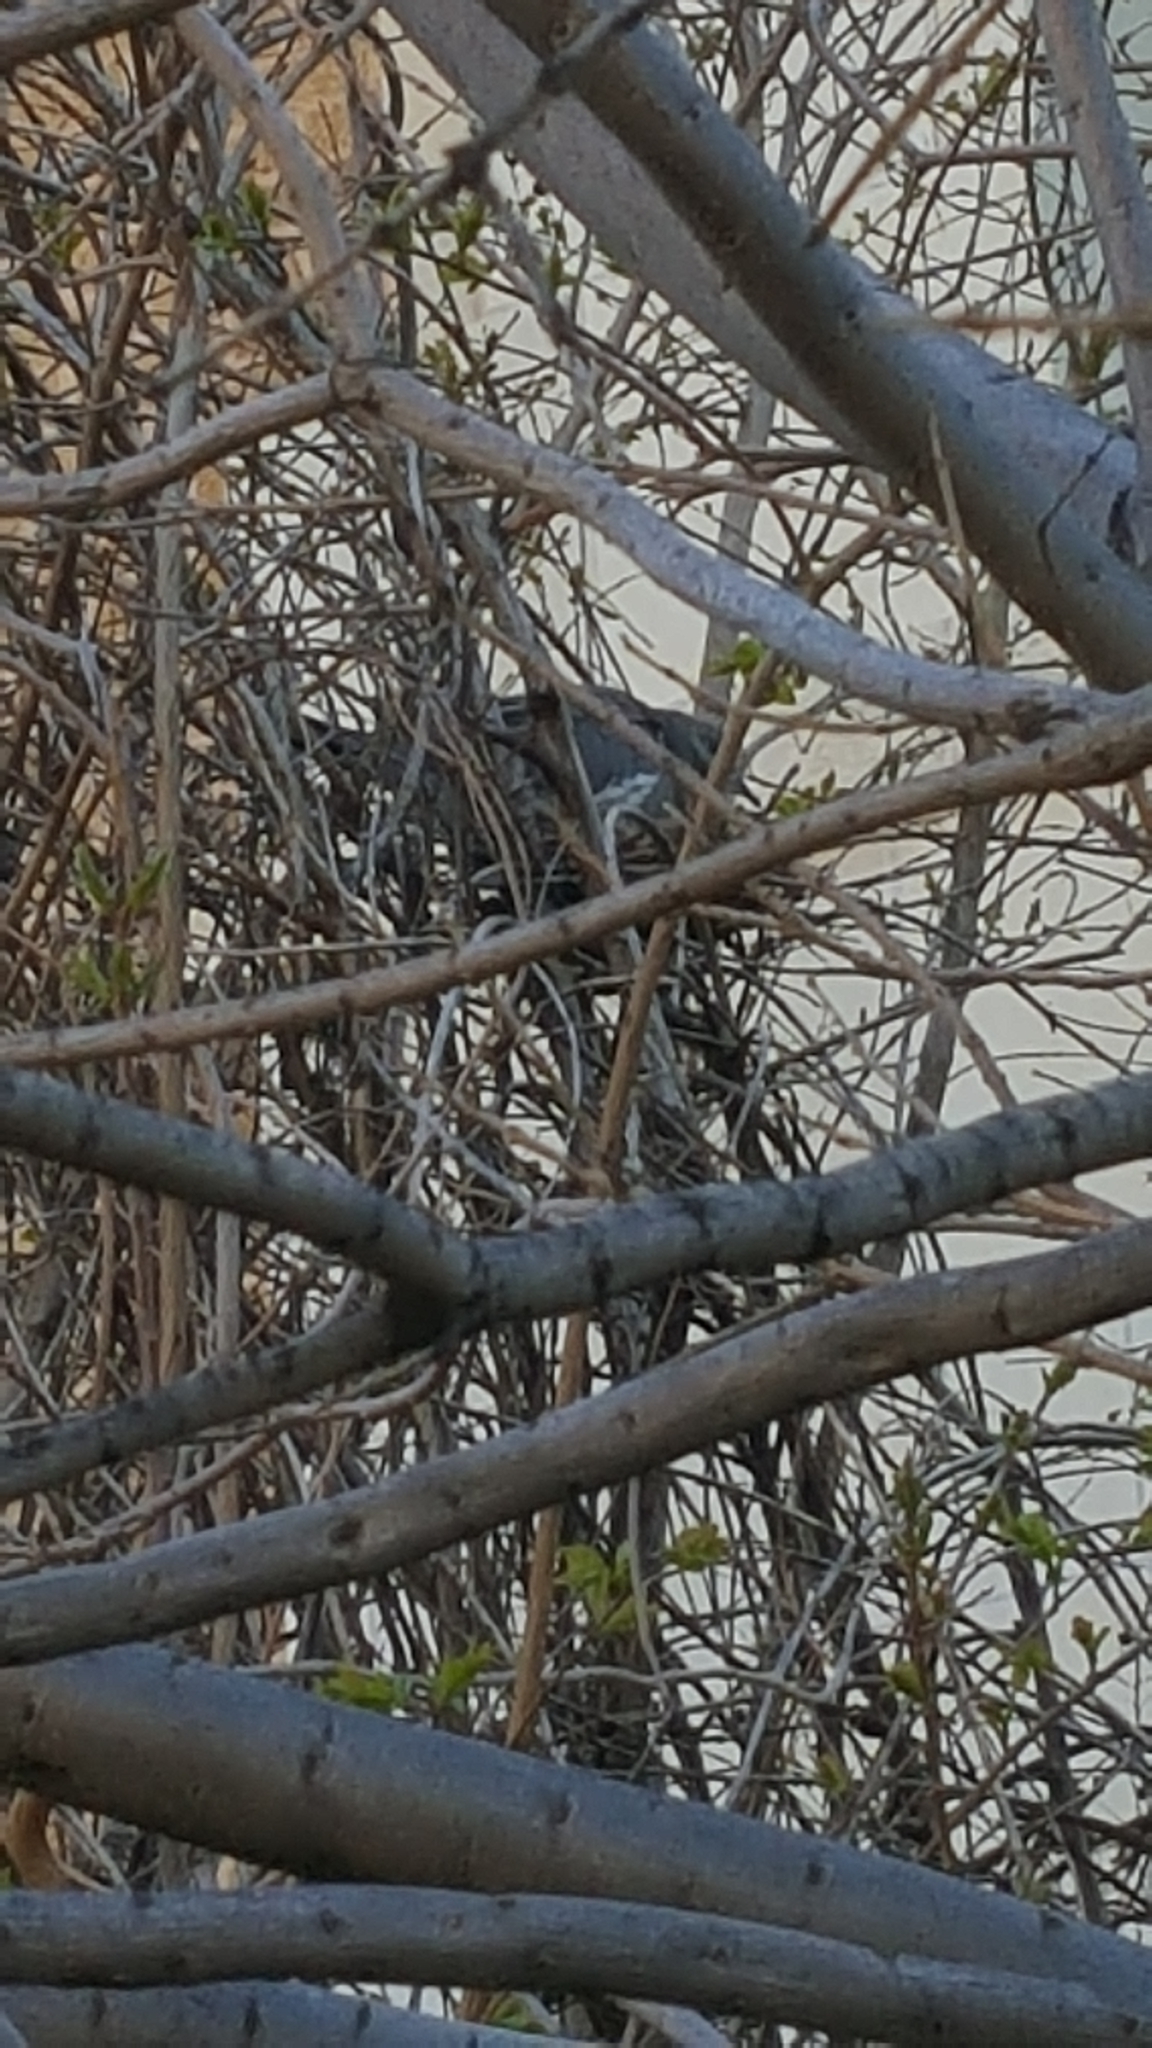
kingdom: Animalia
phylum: Chordata
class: Aves
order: Columbiformes
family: Columbidae
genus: Zenaida
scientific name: Zenaida asiatica
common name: White-winged dove
